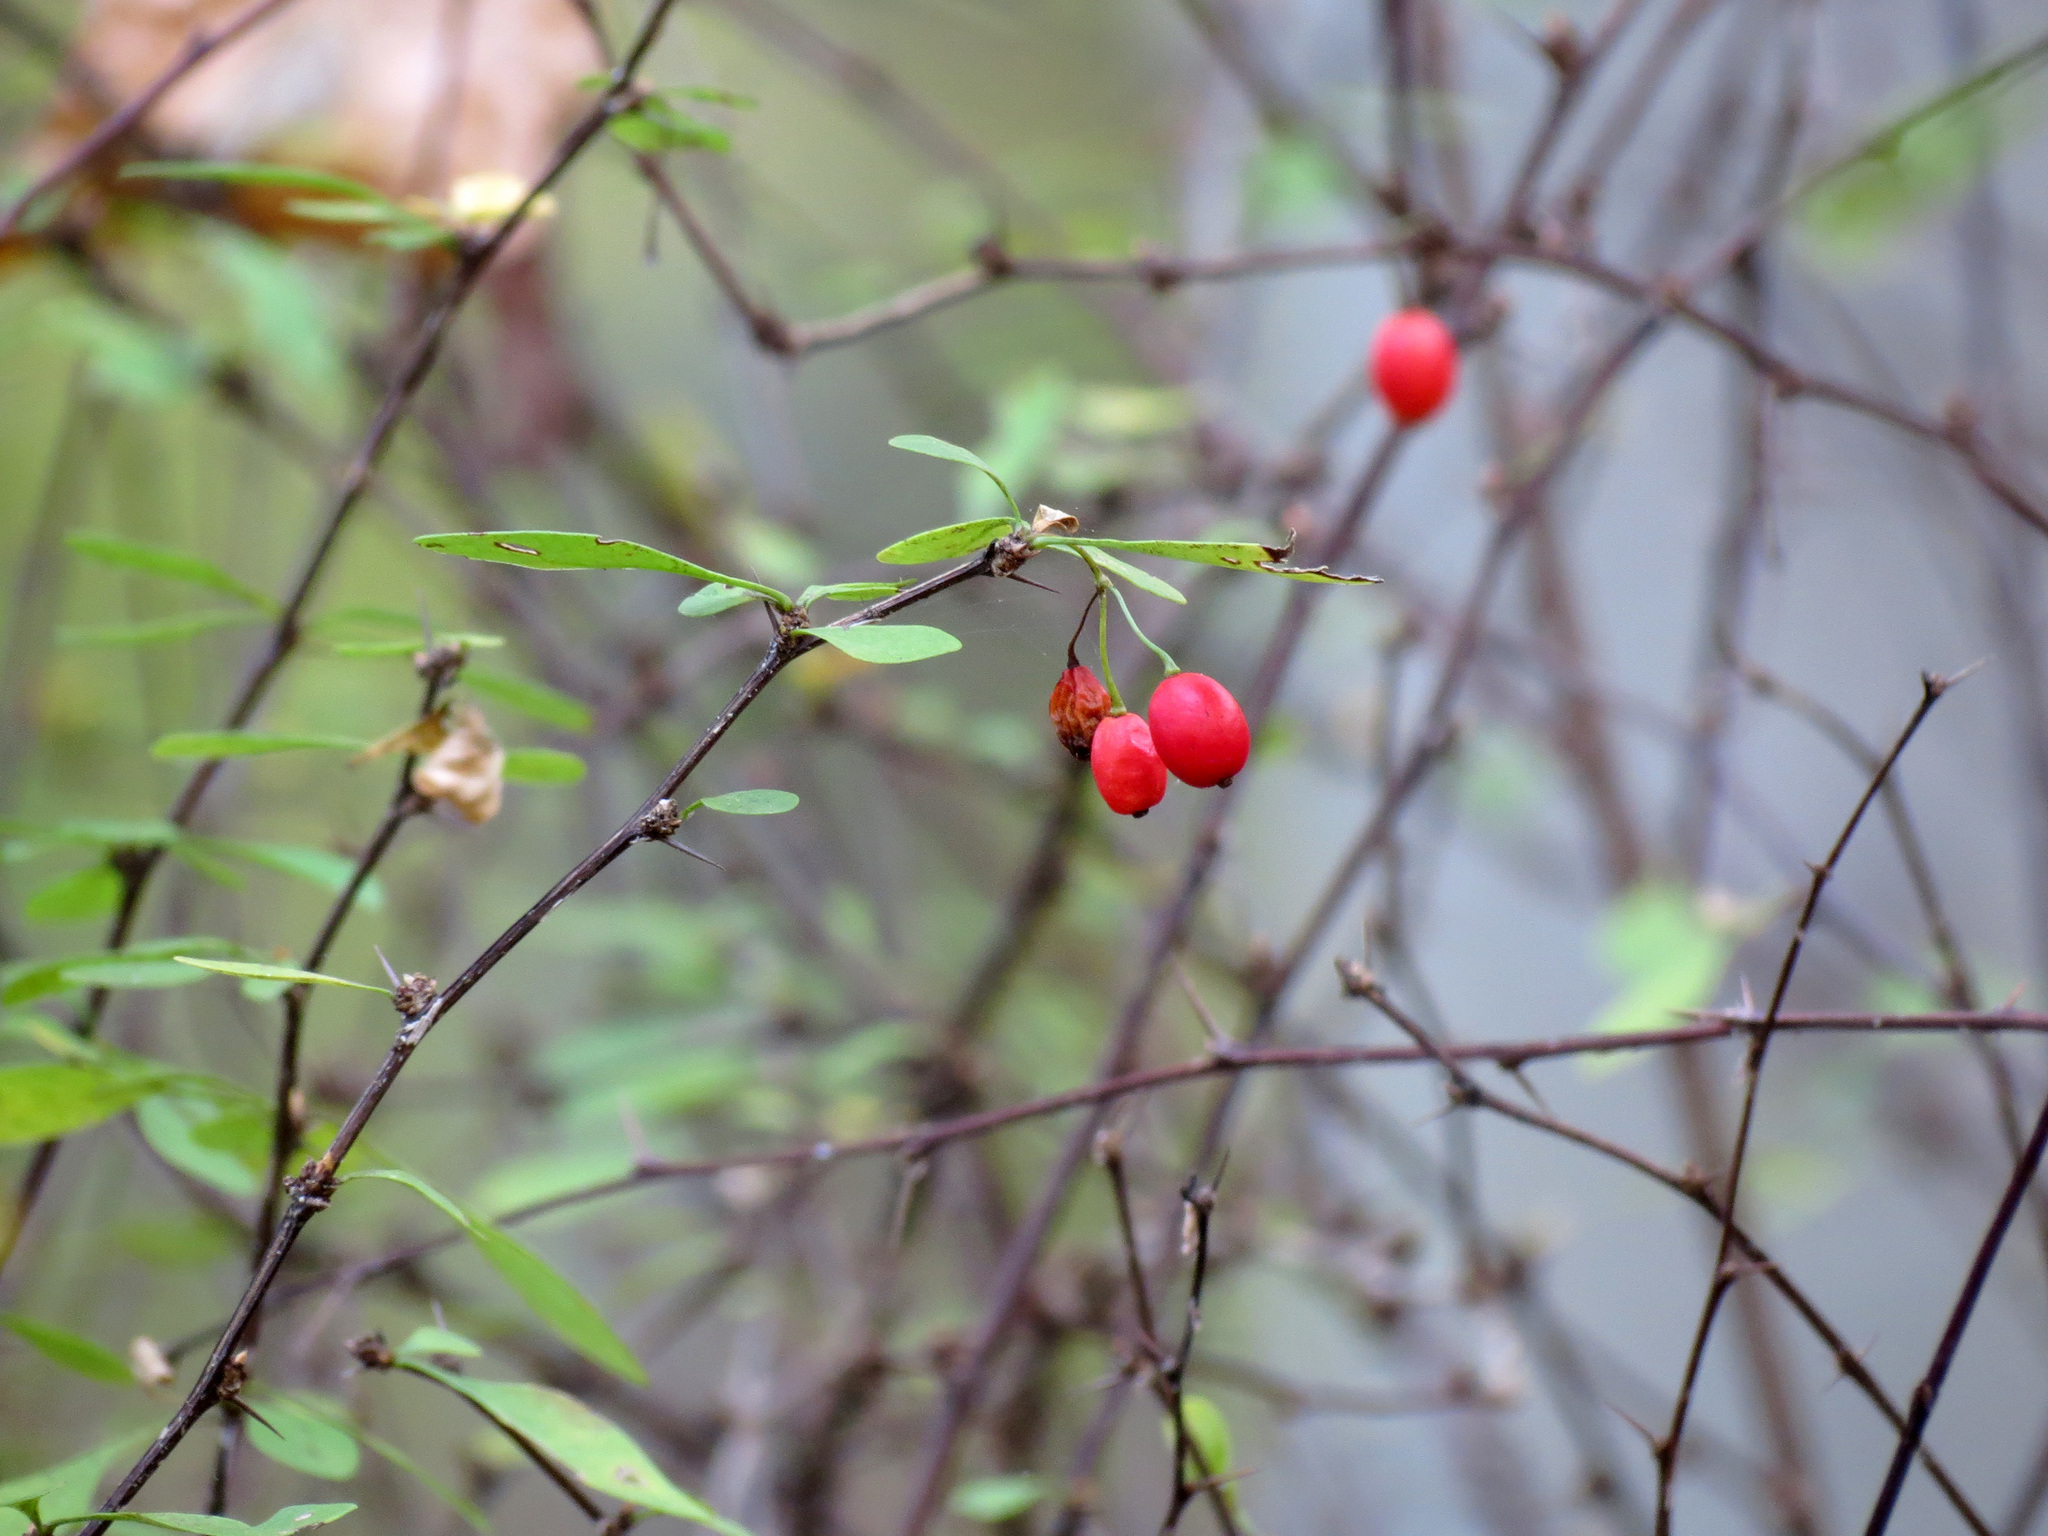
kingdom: Plantae
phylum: Tracheophyta
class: Magnoliopsida
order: Ranunculales
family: Berberidaceae
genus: Berberis
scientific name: Berberis thunbergii
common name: Japanese barberry
